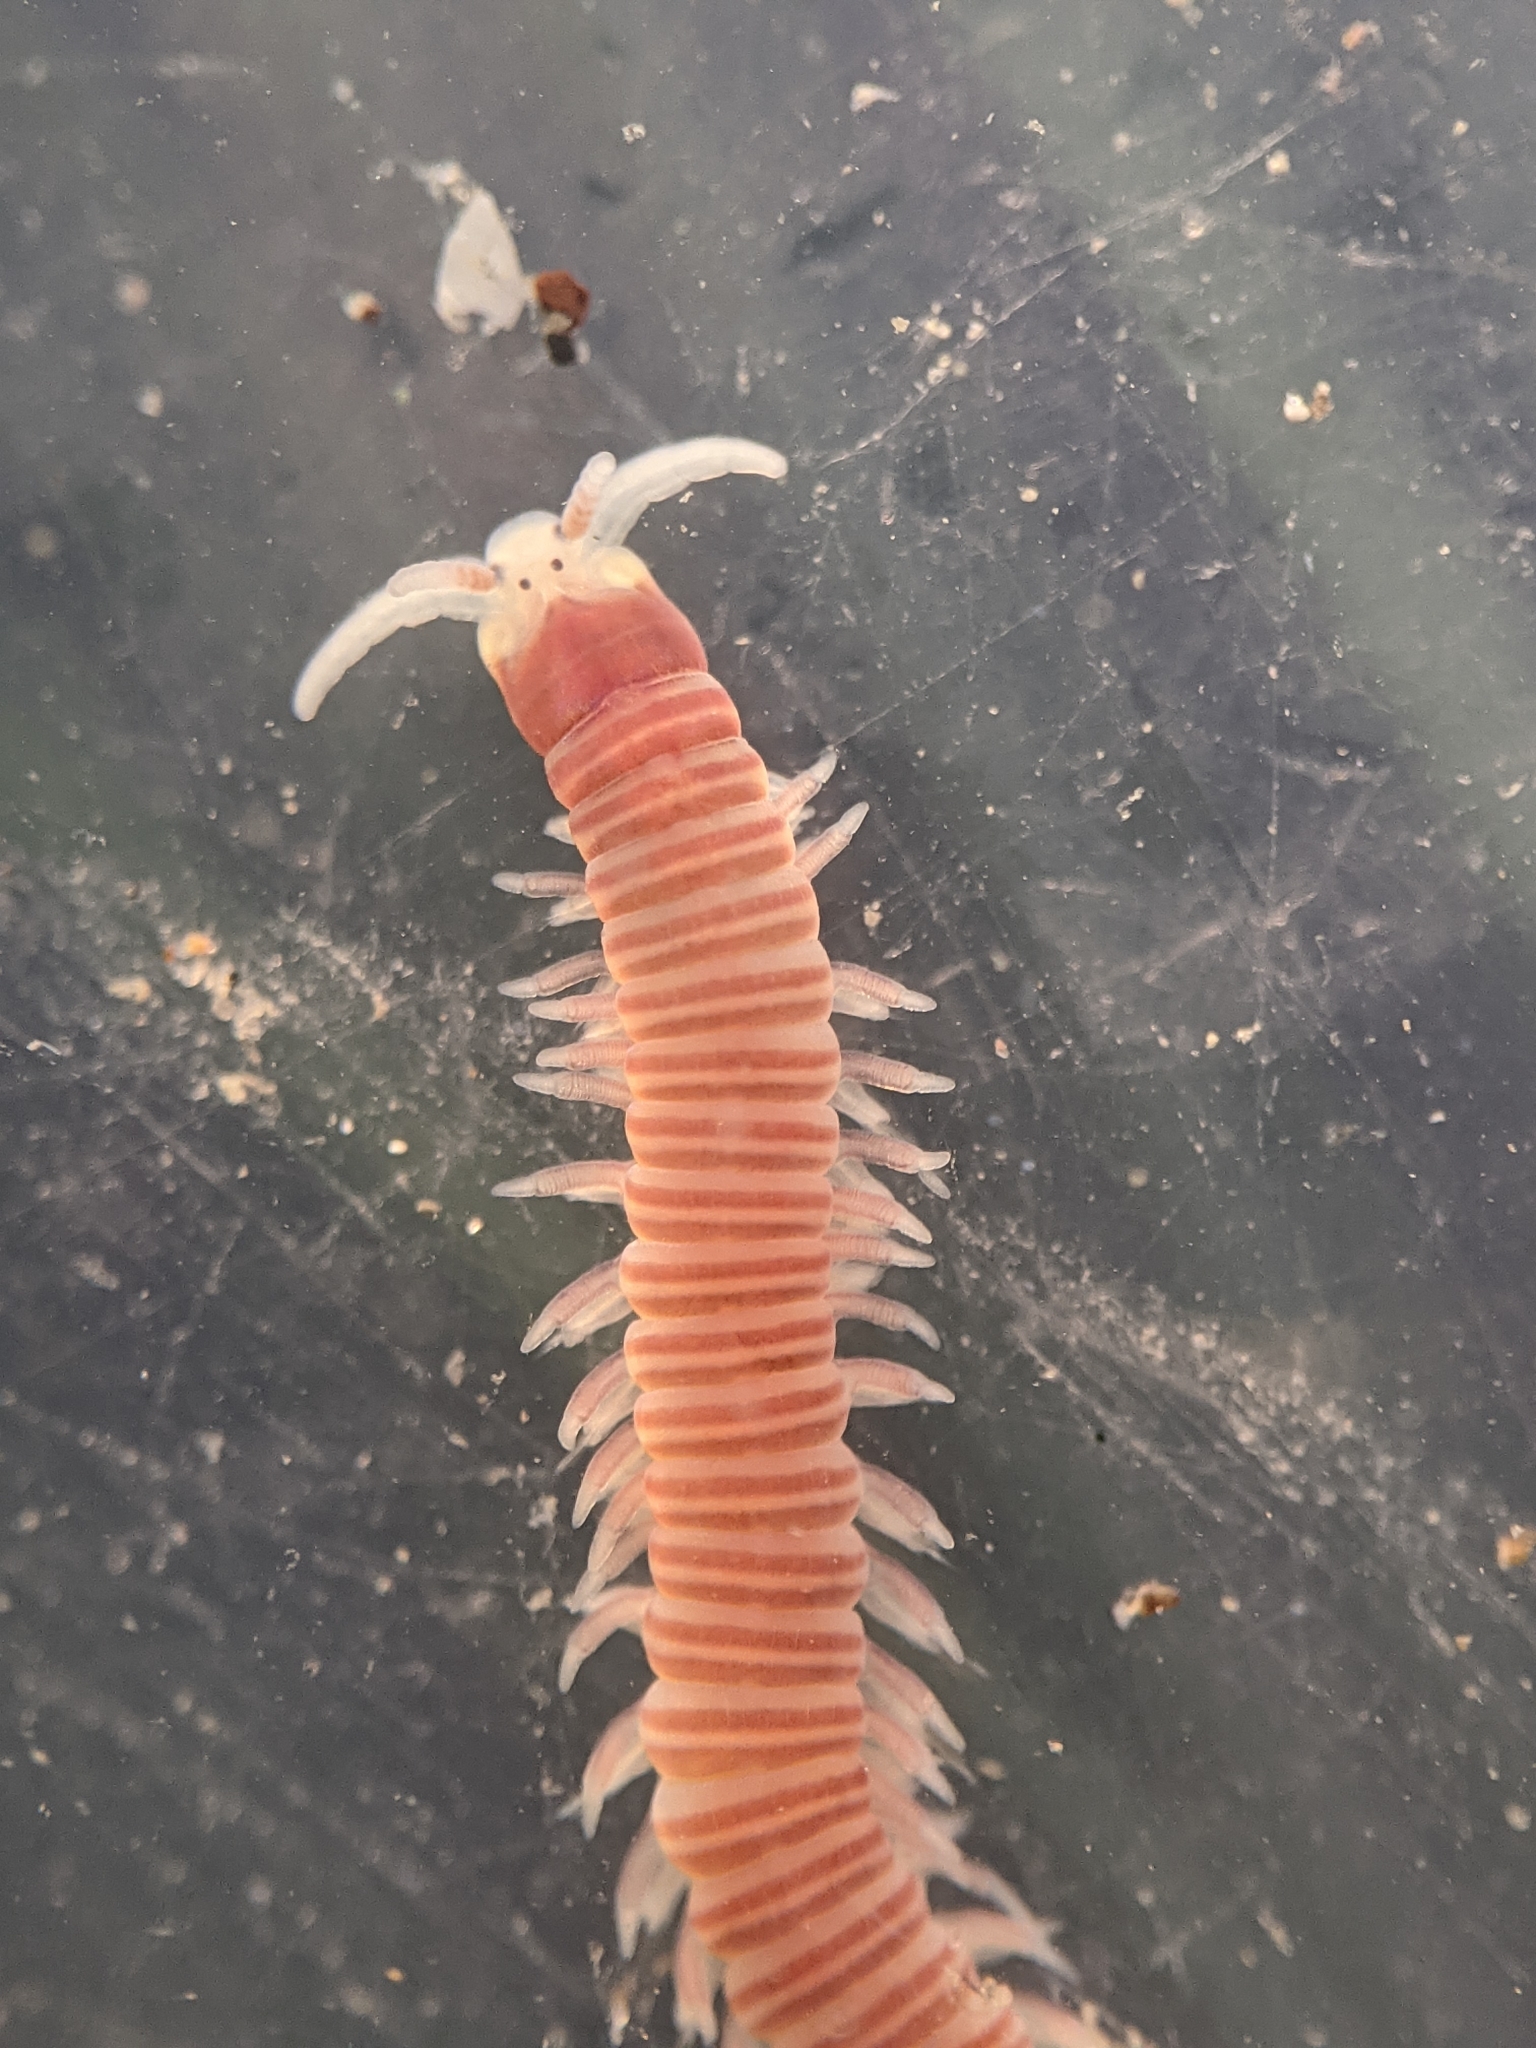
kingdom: Animalia
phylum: Annelida
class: Polychaeta
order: Eunicida
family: Dorvilleidae
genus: Dorvillea
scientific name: Dorvillea moniloceras
